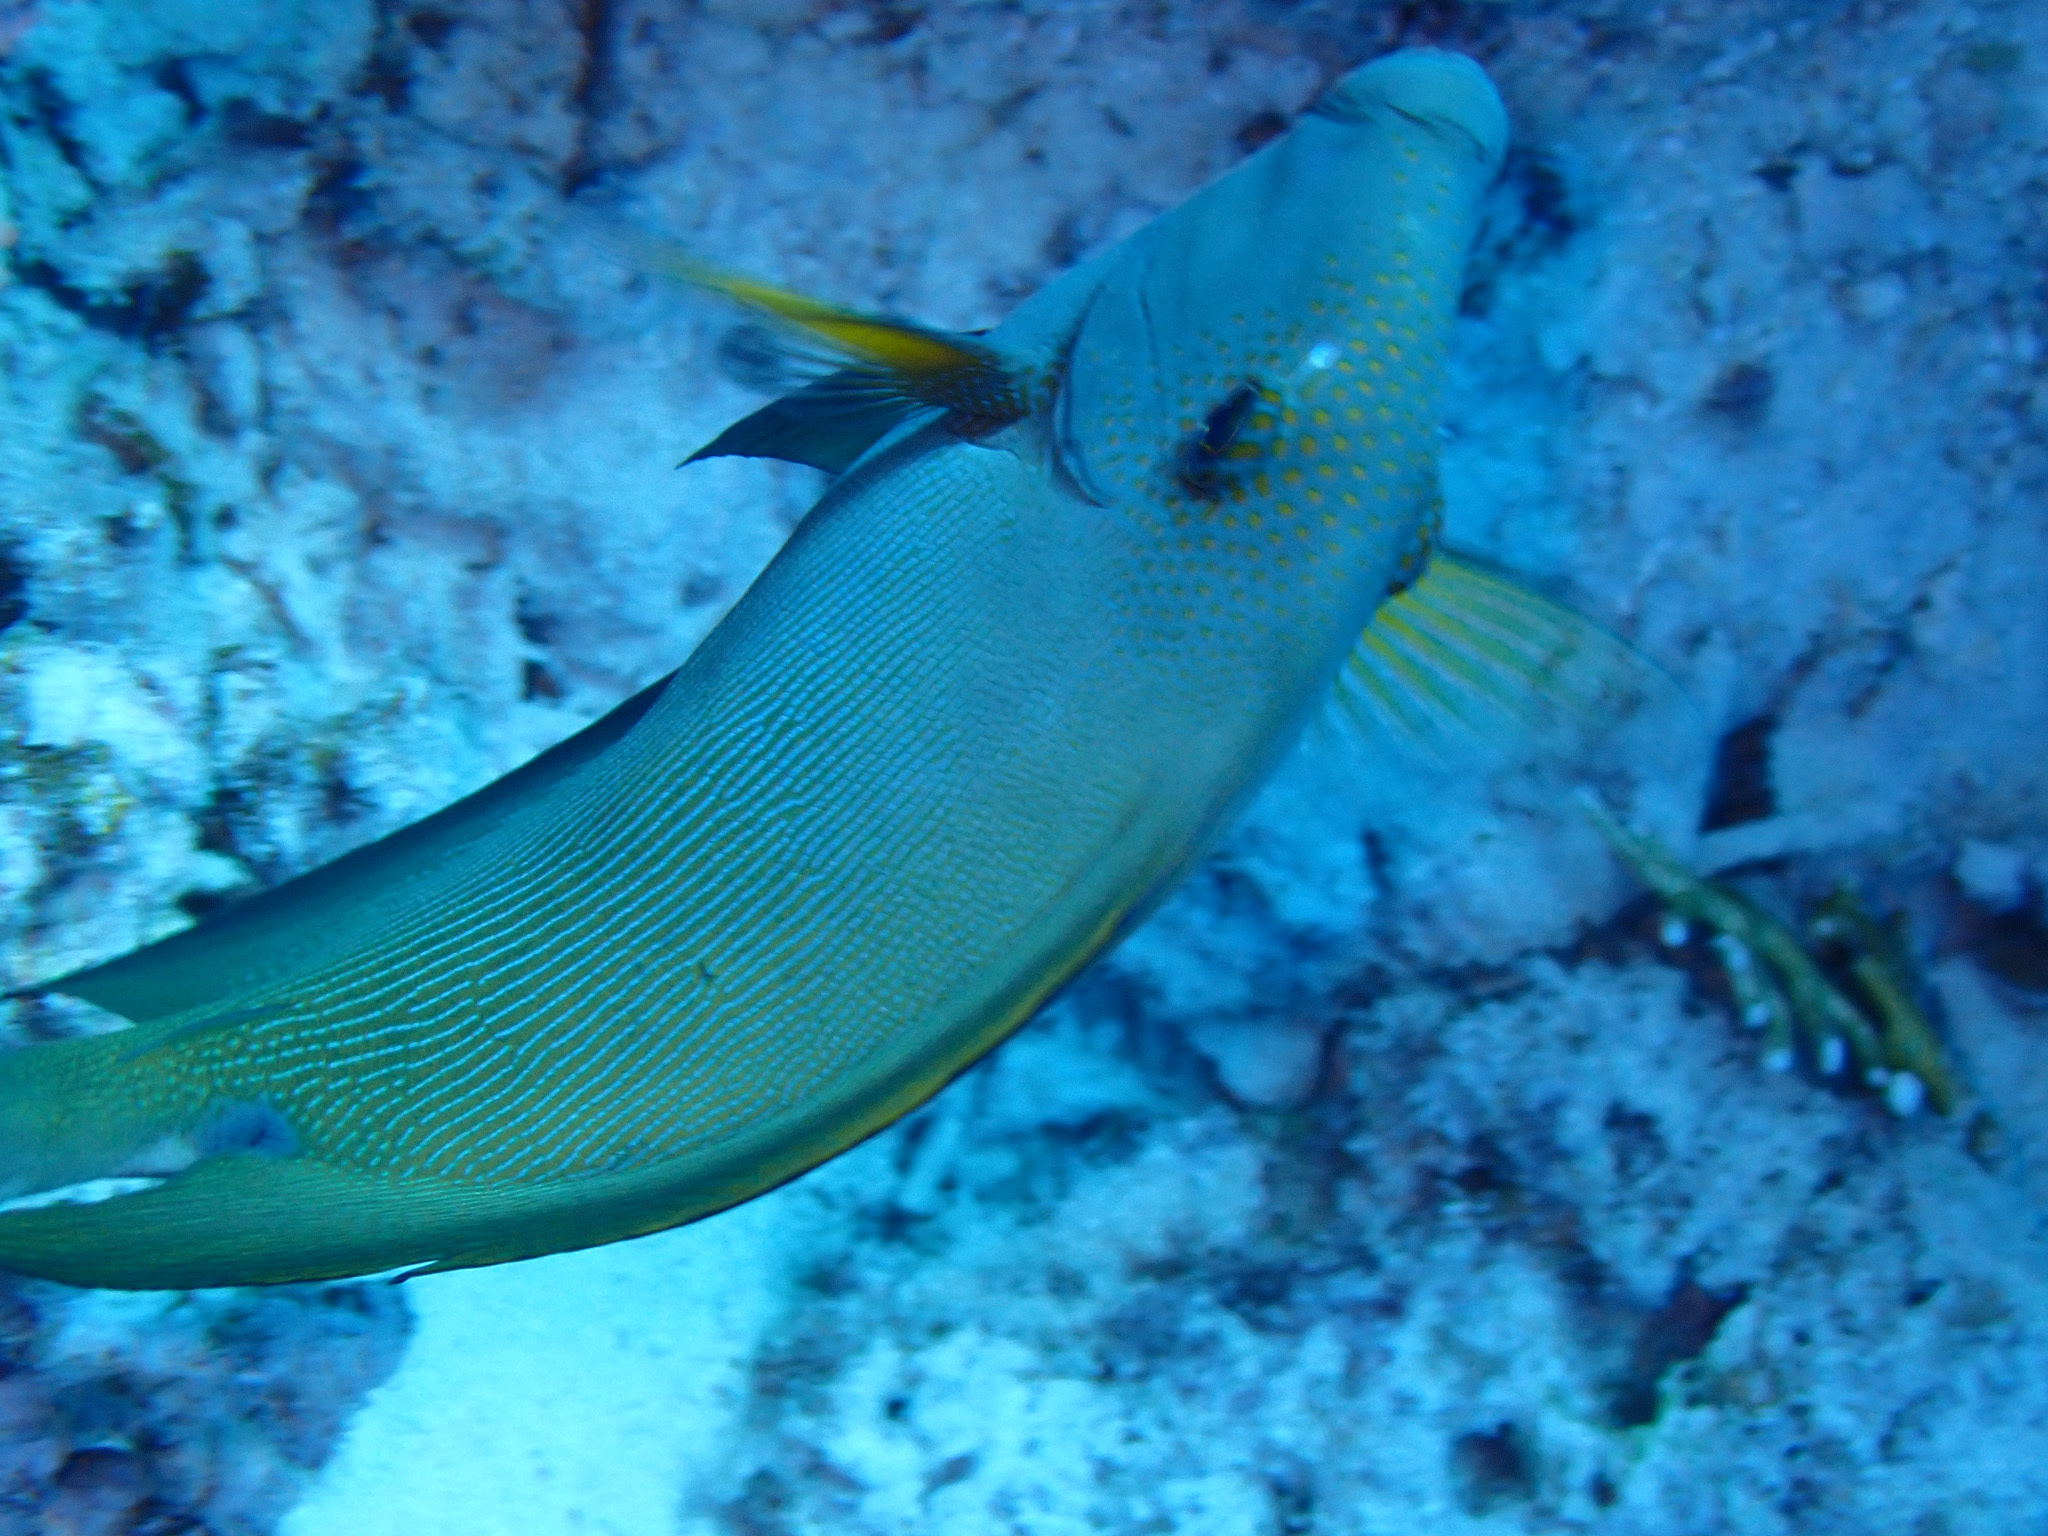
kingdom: Animalia
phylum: Chordata
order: Perciformes
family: Acanthuridae
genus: Ctenochaetus
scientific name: Ctenochaetus striatus
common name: Bristle-toothed surgeonfish
